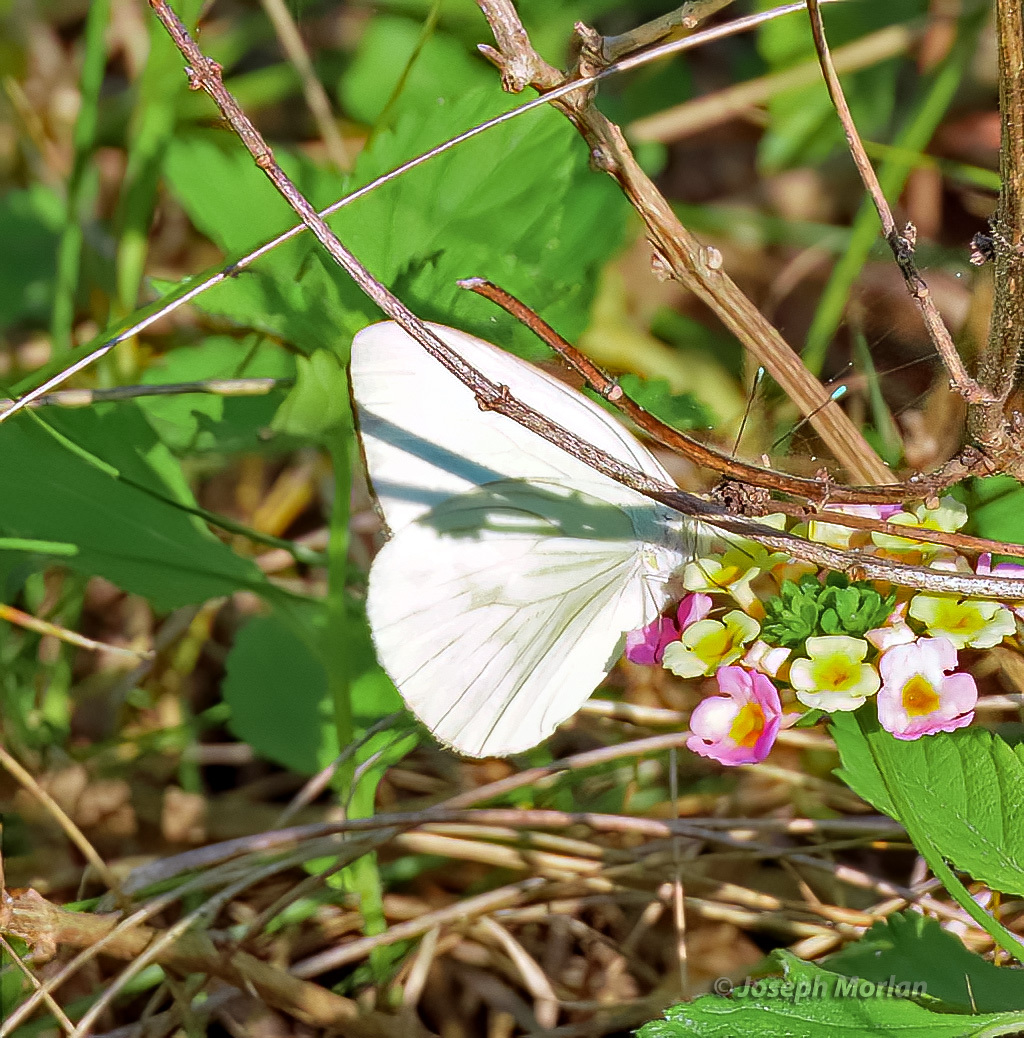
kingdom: Animalia
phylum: Arthropoda
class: Insecta
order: Lepidoptera
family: Pieridae
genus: Ascia
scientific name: Ascia monuste
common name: Great southern white
